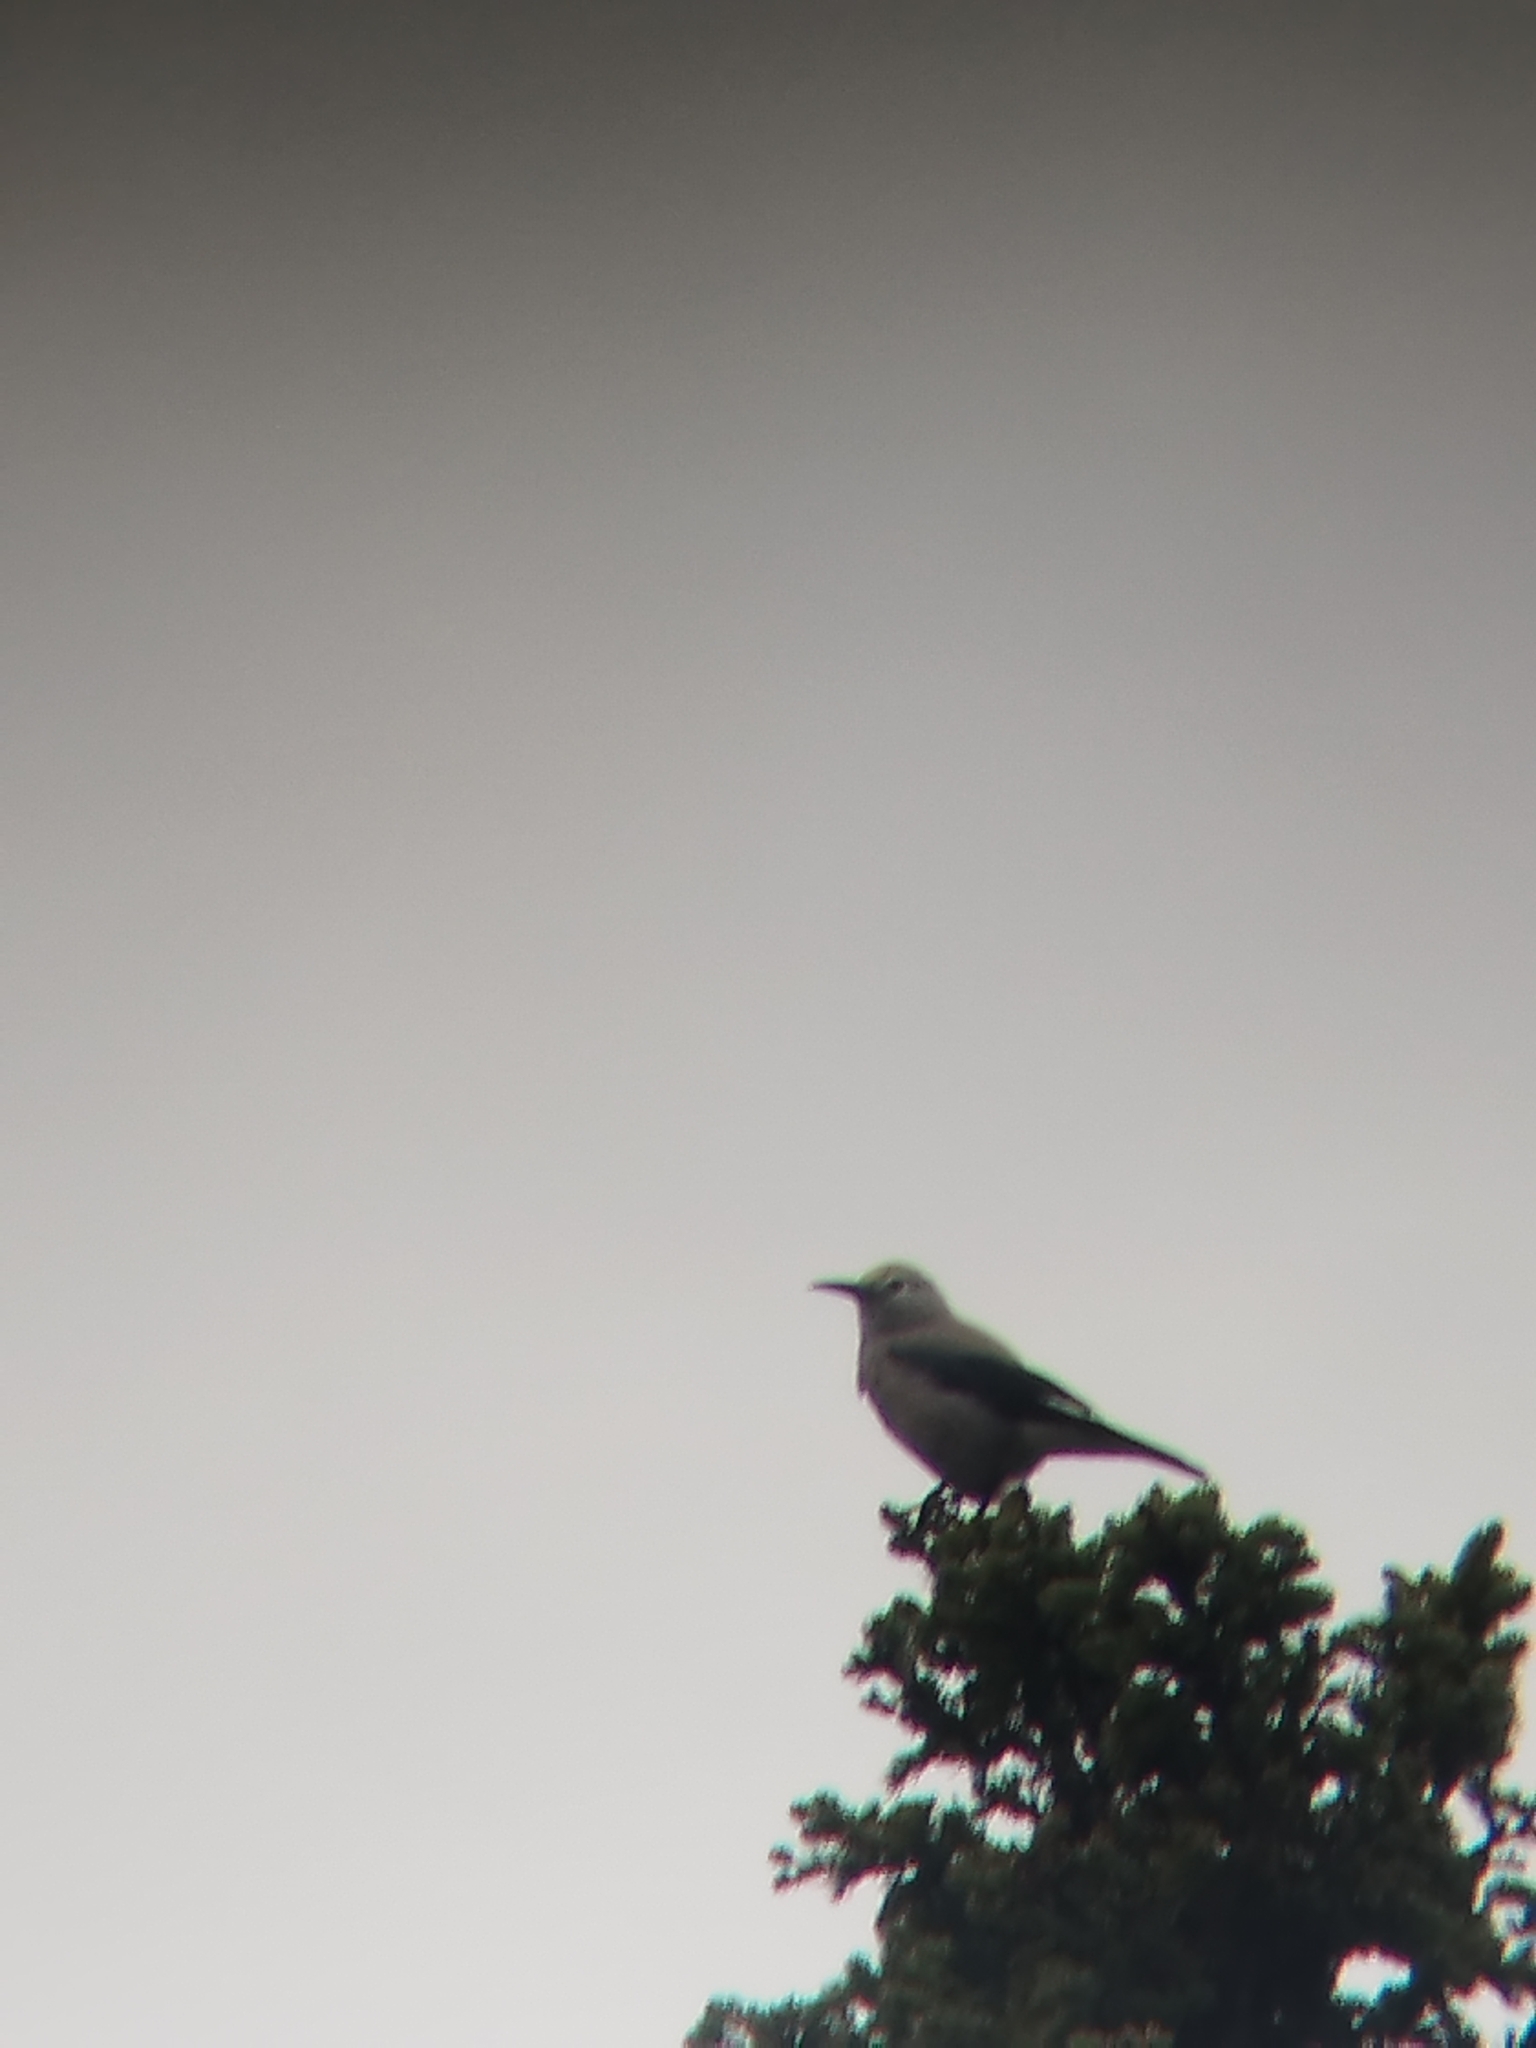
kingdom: Animalia
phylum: Chordata
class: Aves
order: Passeriformes
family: Corvidae
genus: Nucifraga
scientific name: Nucifraga columbiana
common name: Clark's nutcracker
